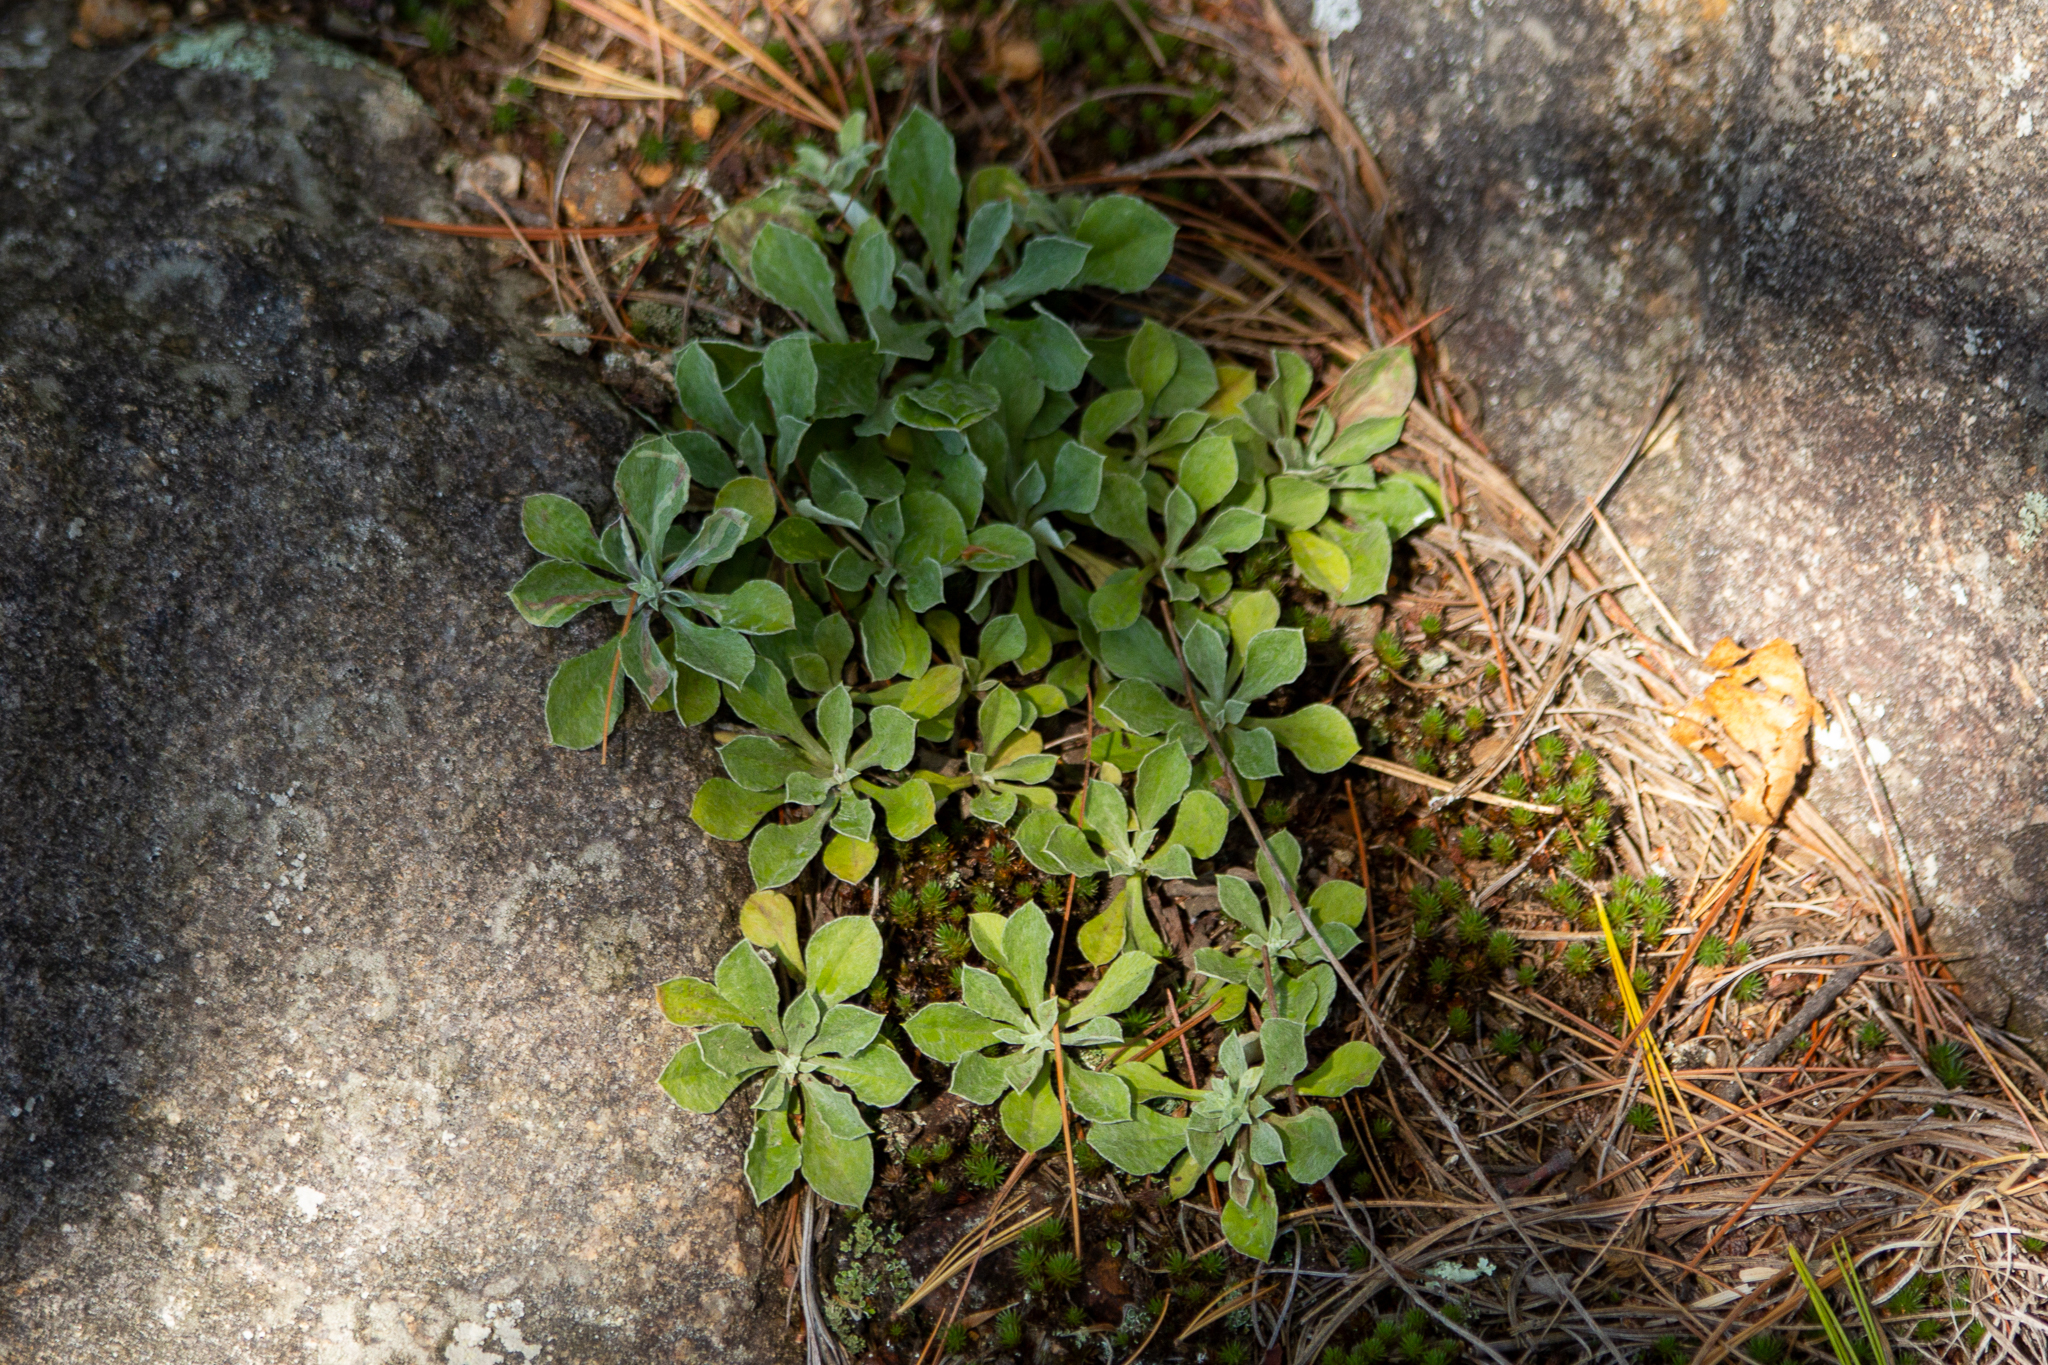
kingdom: Plantae
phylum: Tracheophyta
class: Magnoliopsida
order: Asterales
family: Asteraceae
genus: Antennaria
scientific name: Antennaria howellii
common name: Howell's pussytoes
